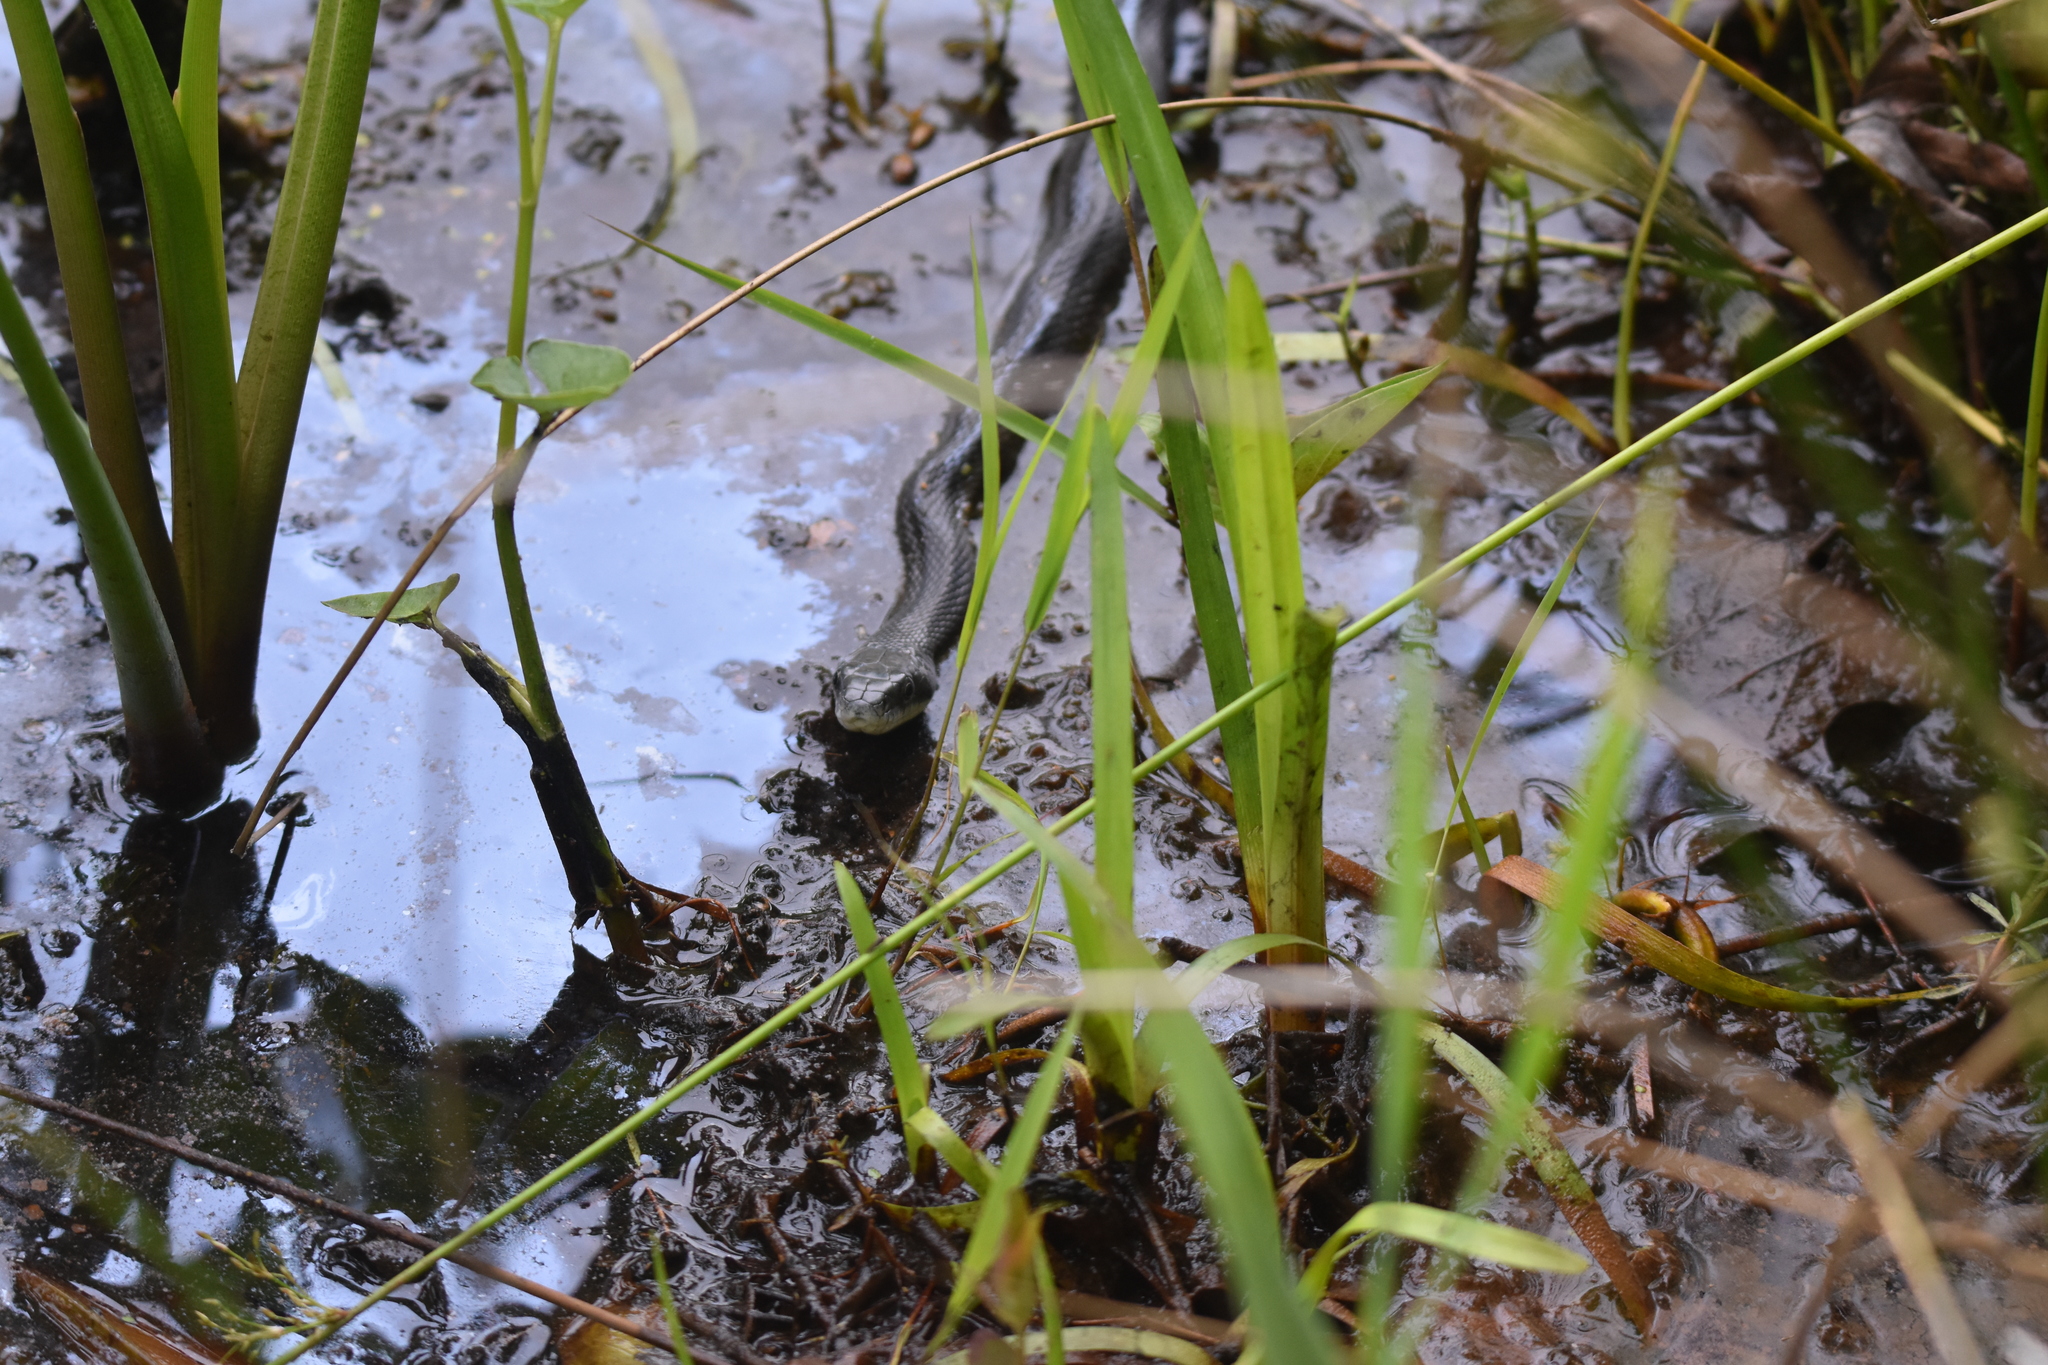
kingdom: Animalia
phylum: Chordata
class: Squamata
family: Colubridae
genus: Pantherophis
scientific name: Pantherophis alleghaniensis
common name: Eastern rat snake
